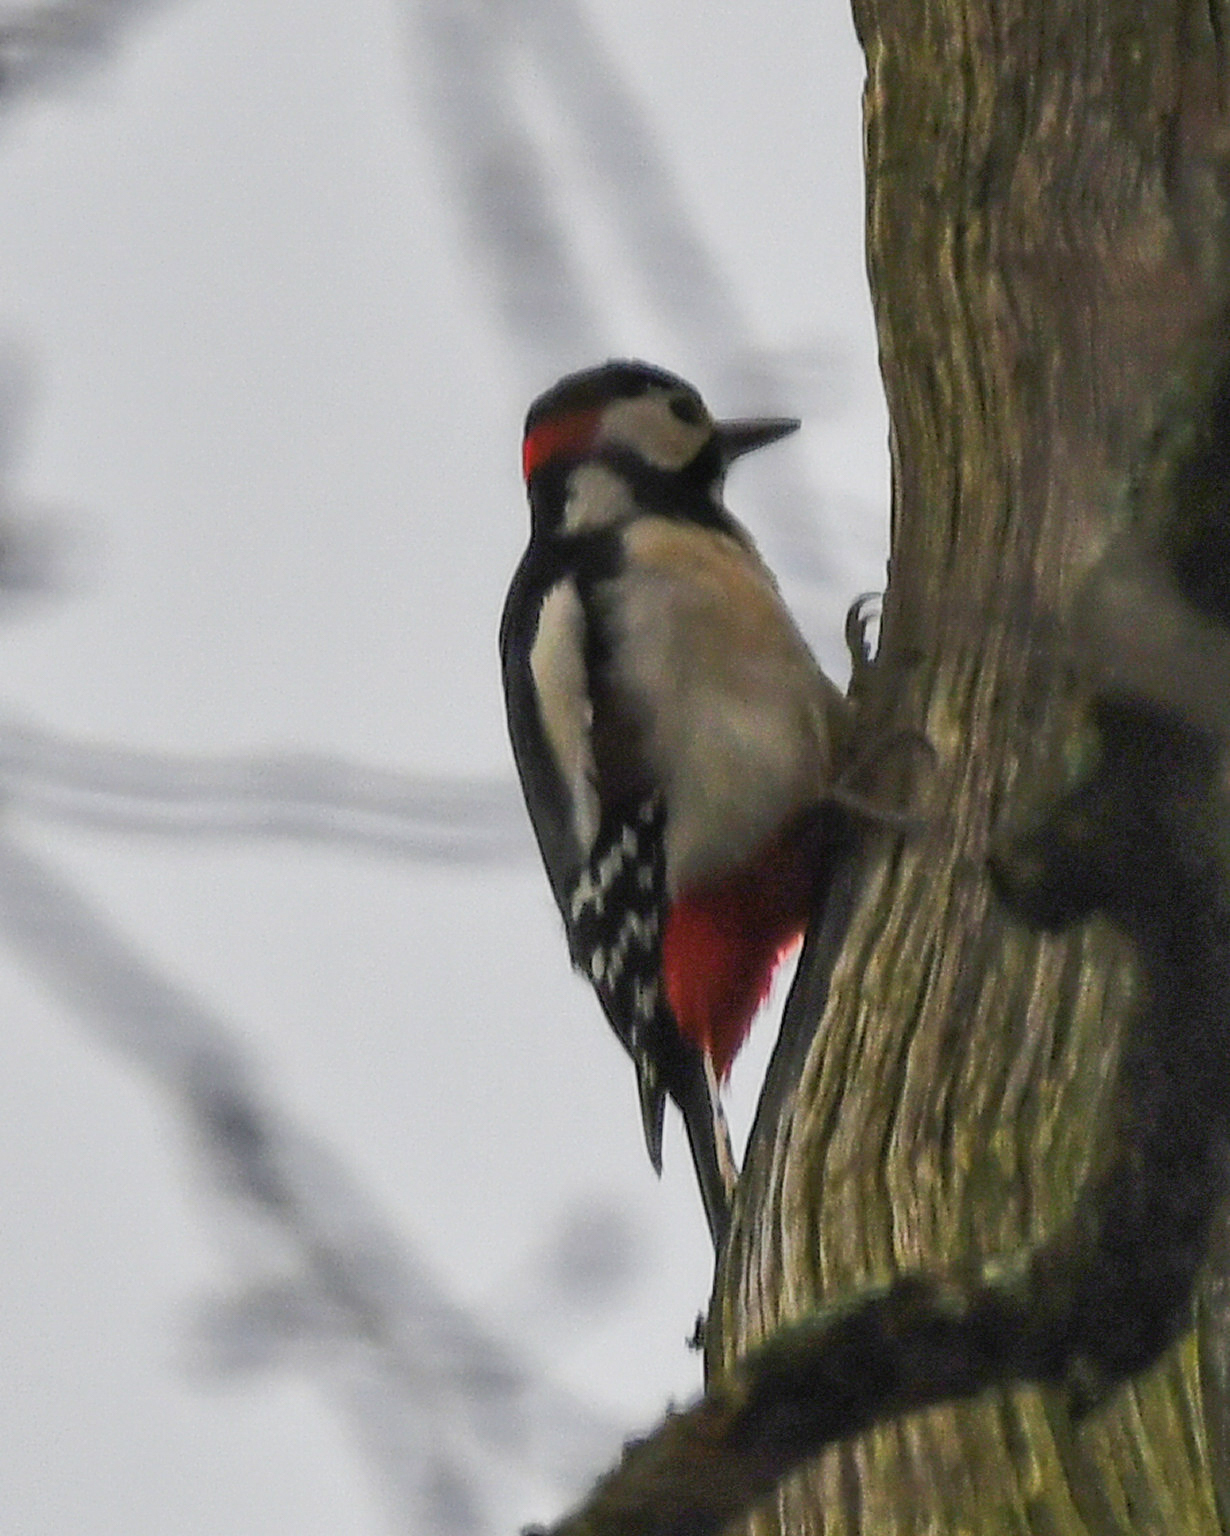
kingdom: Animalia
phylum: Chordata
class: Aves
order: Piciformes
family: Picidae
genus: Dendrocopos
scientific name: Dendrocopos major
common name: Great spotted woodpecker
